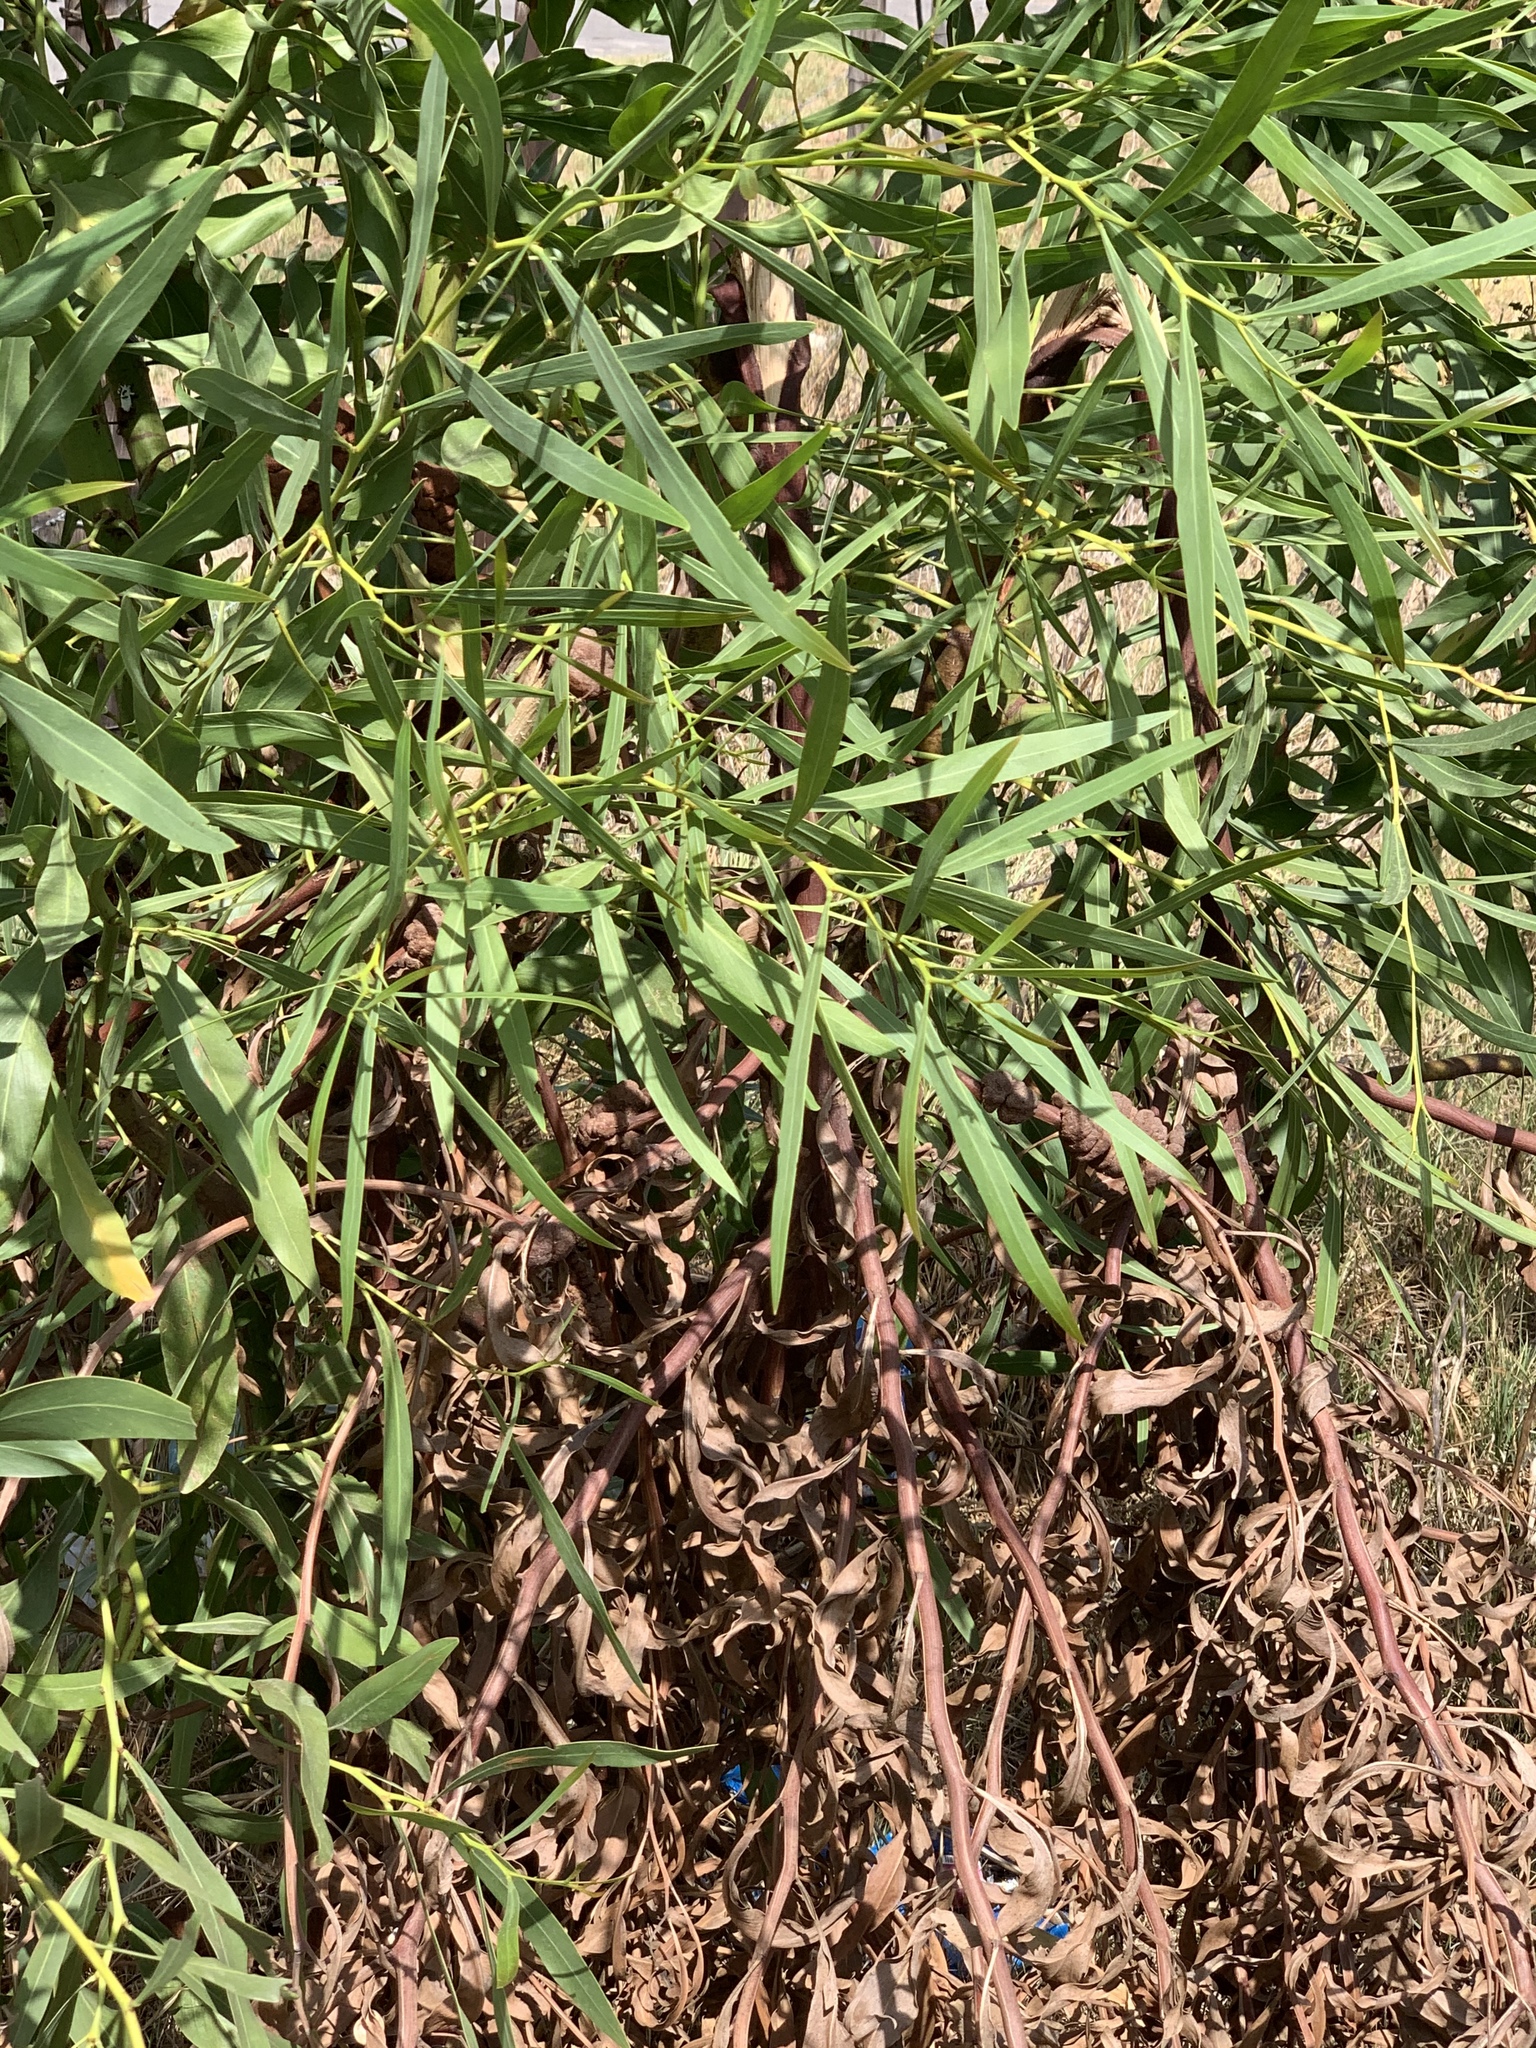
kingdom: Plantae
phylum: Tracheophyta
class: Magnoliopsida
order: Fabales
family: Fabaceae
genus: Acacia
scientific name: Acacia saligna
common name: Orange wattle
